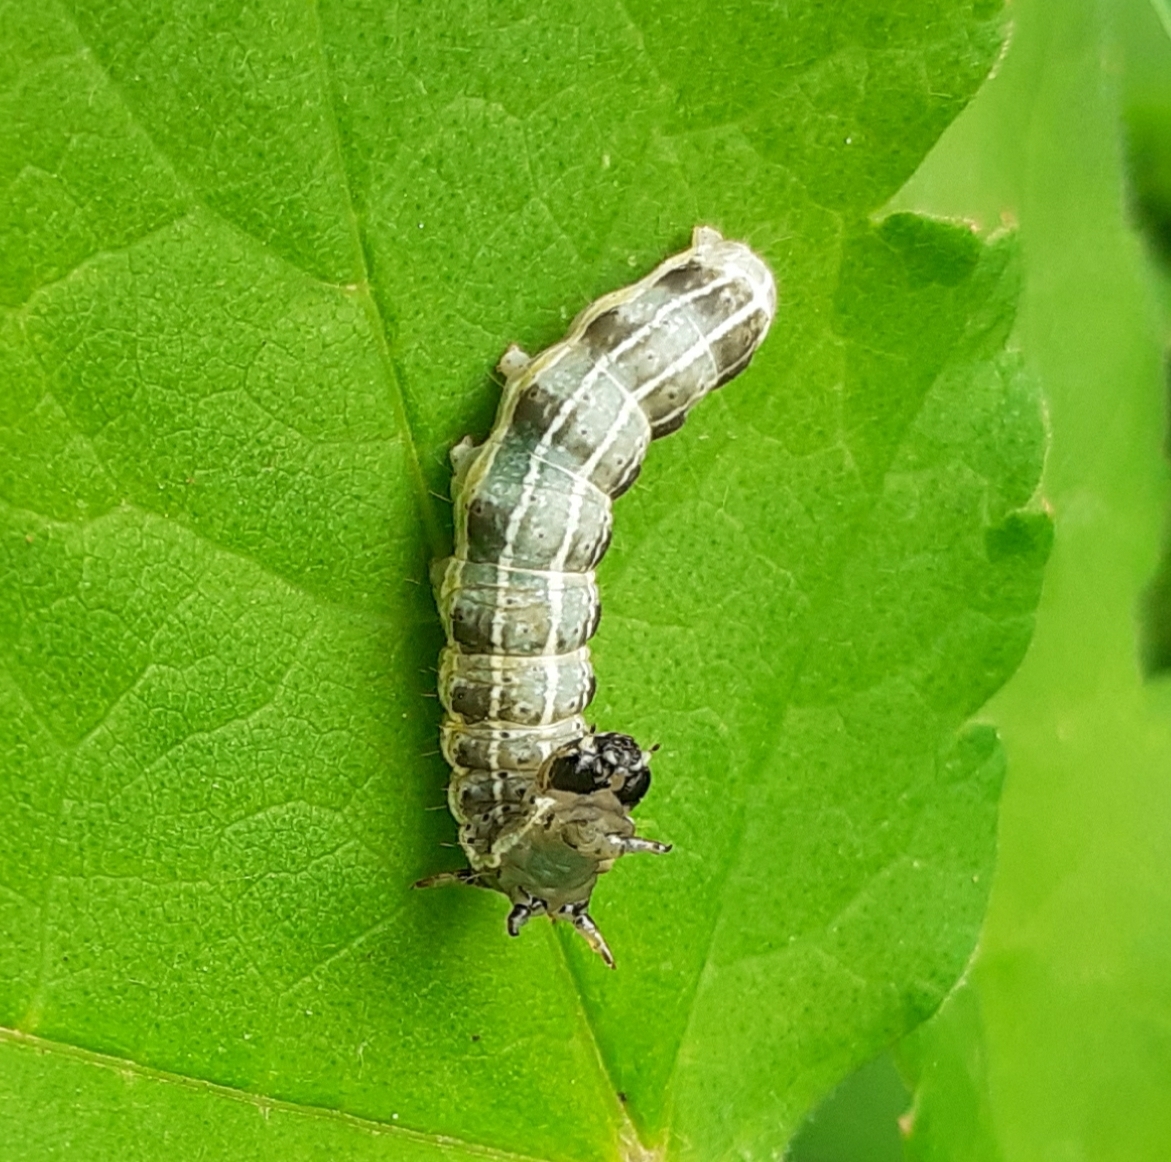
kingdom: Animalia
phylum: Arthropoda
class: Insecta
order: Lepidoptera
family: Noctuidae
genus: Orthosia
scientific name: Orthosia cruda
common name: Small quaker
